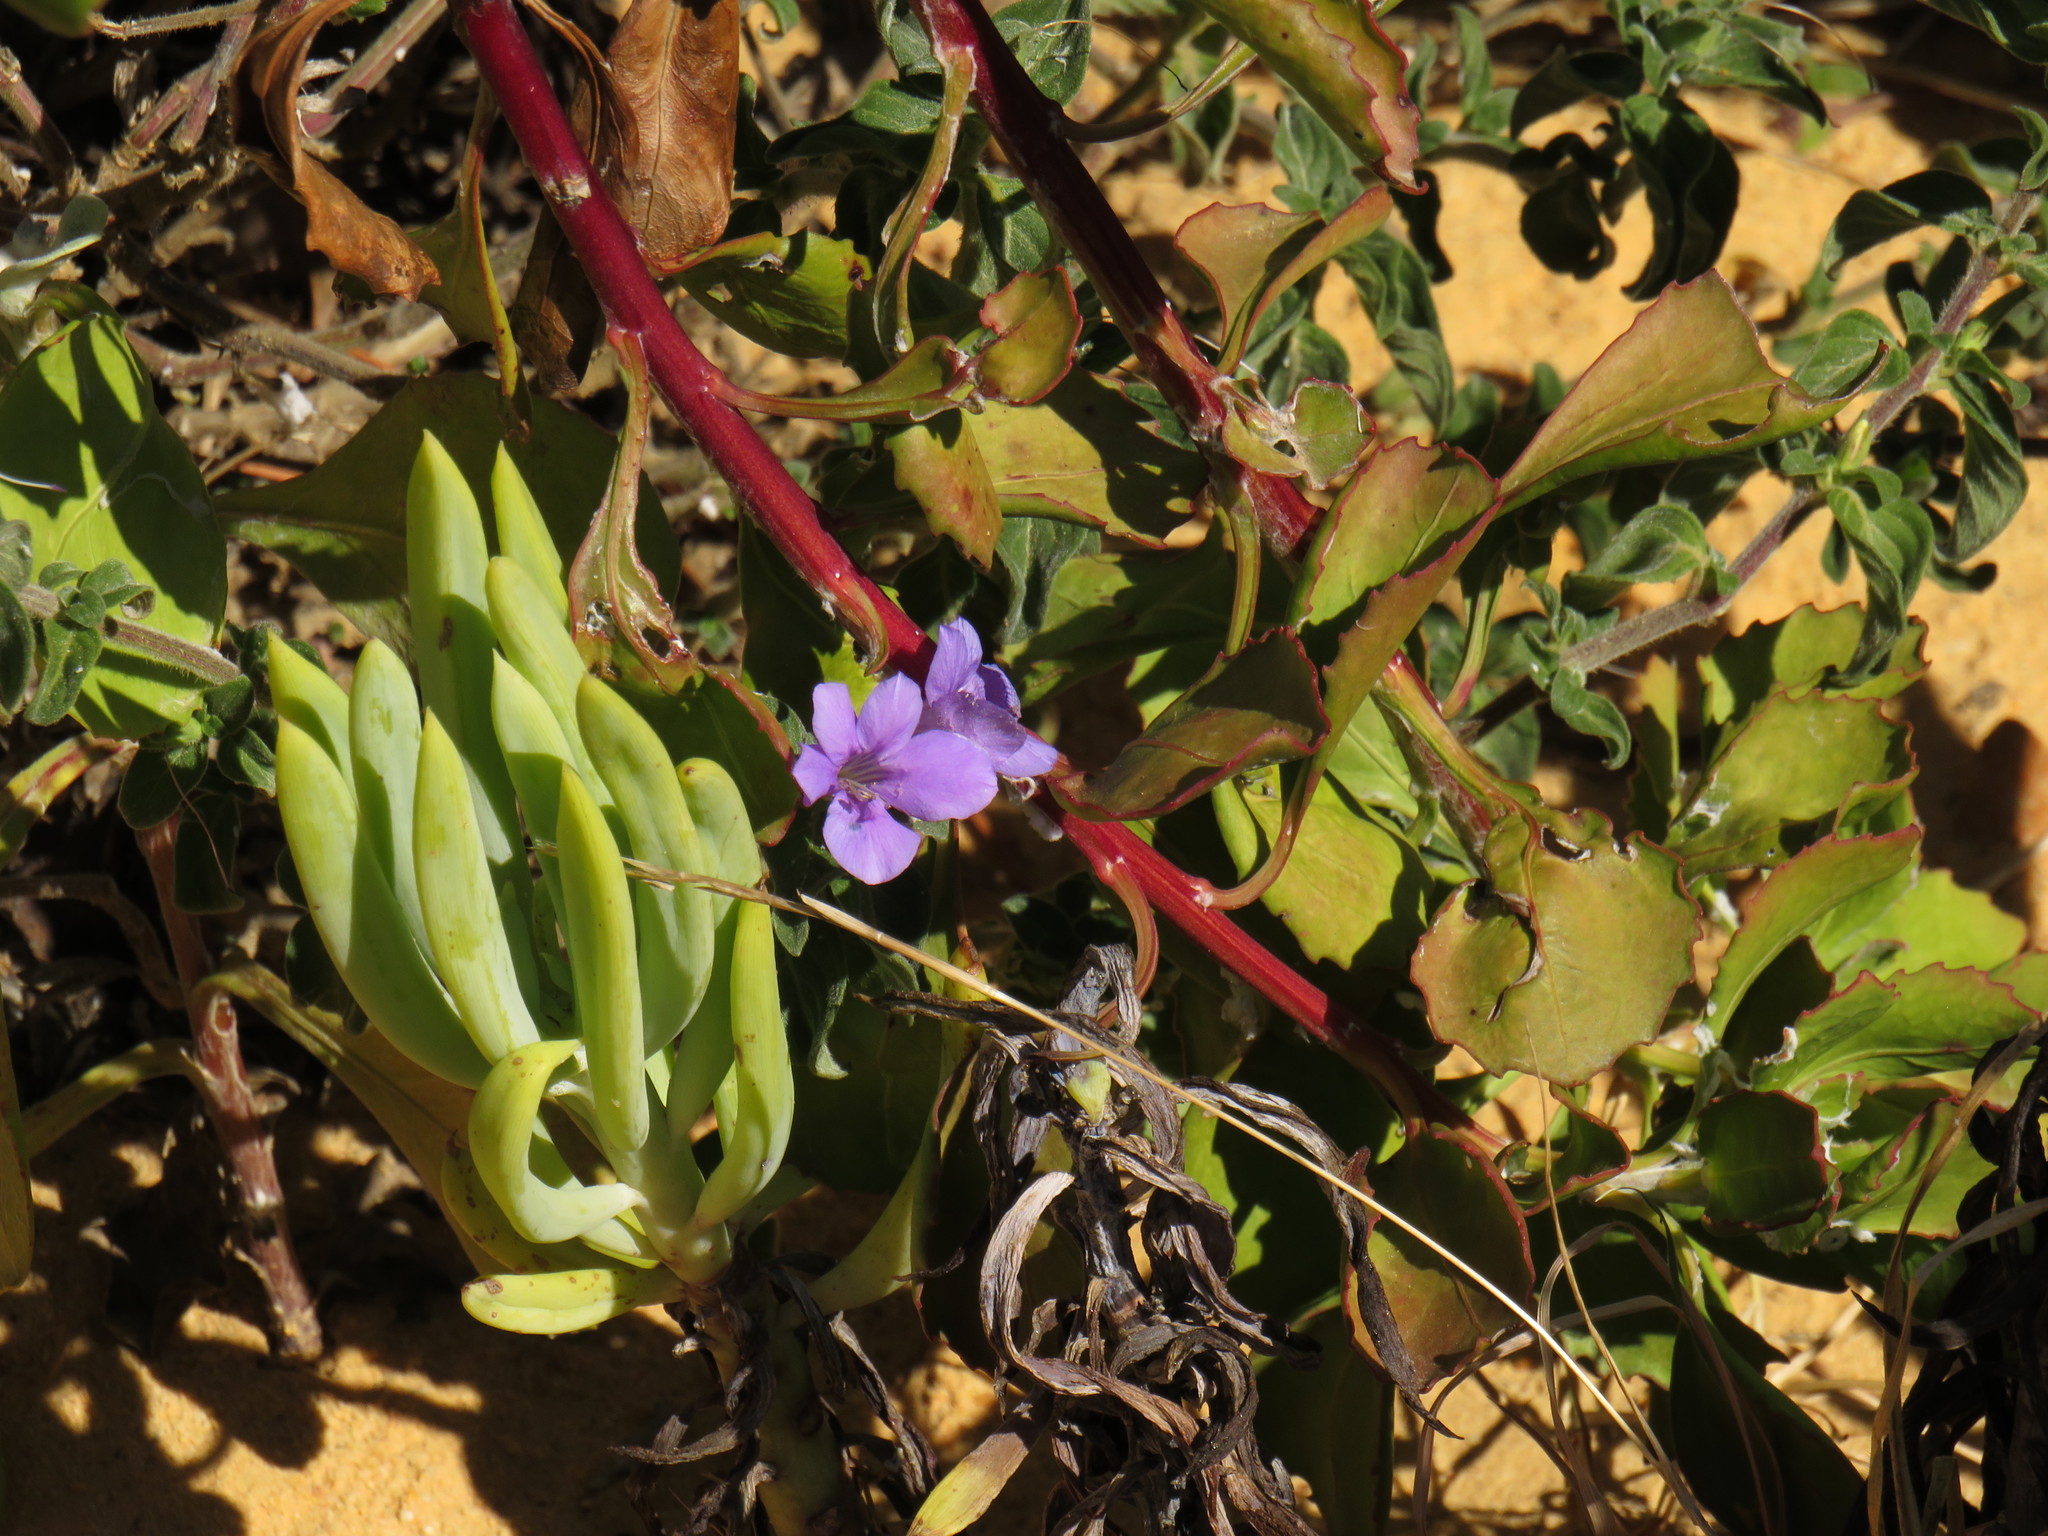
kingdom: Plantae
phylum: Tracheophyta
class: Magnoliopsida
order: Lamiales
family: Acanthaceae
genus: Barleria
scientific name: Barleria obtusa
